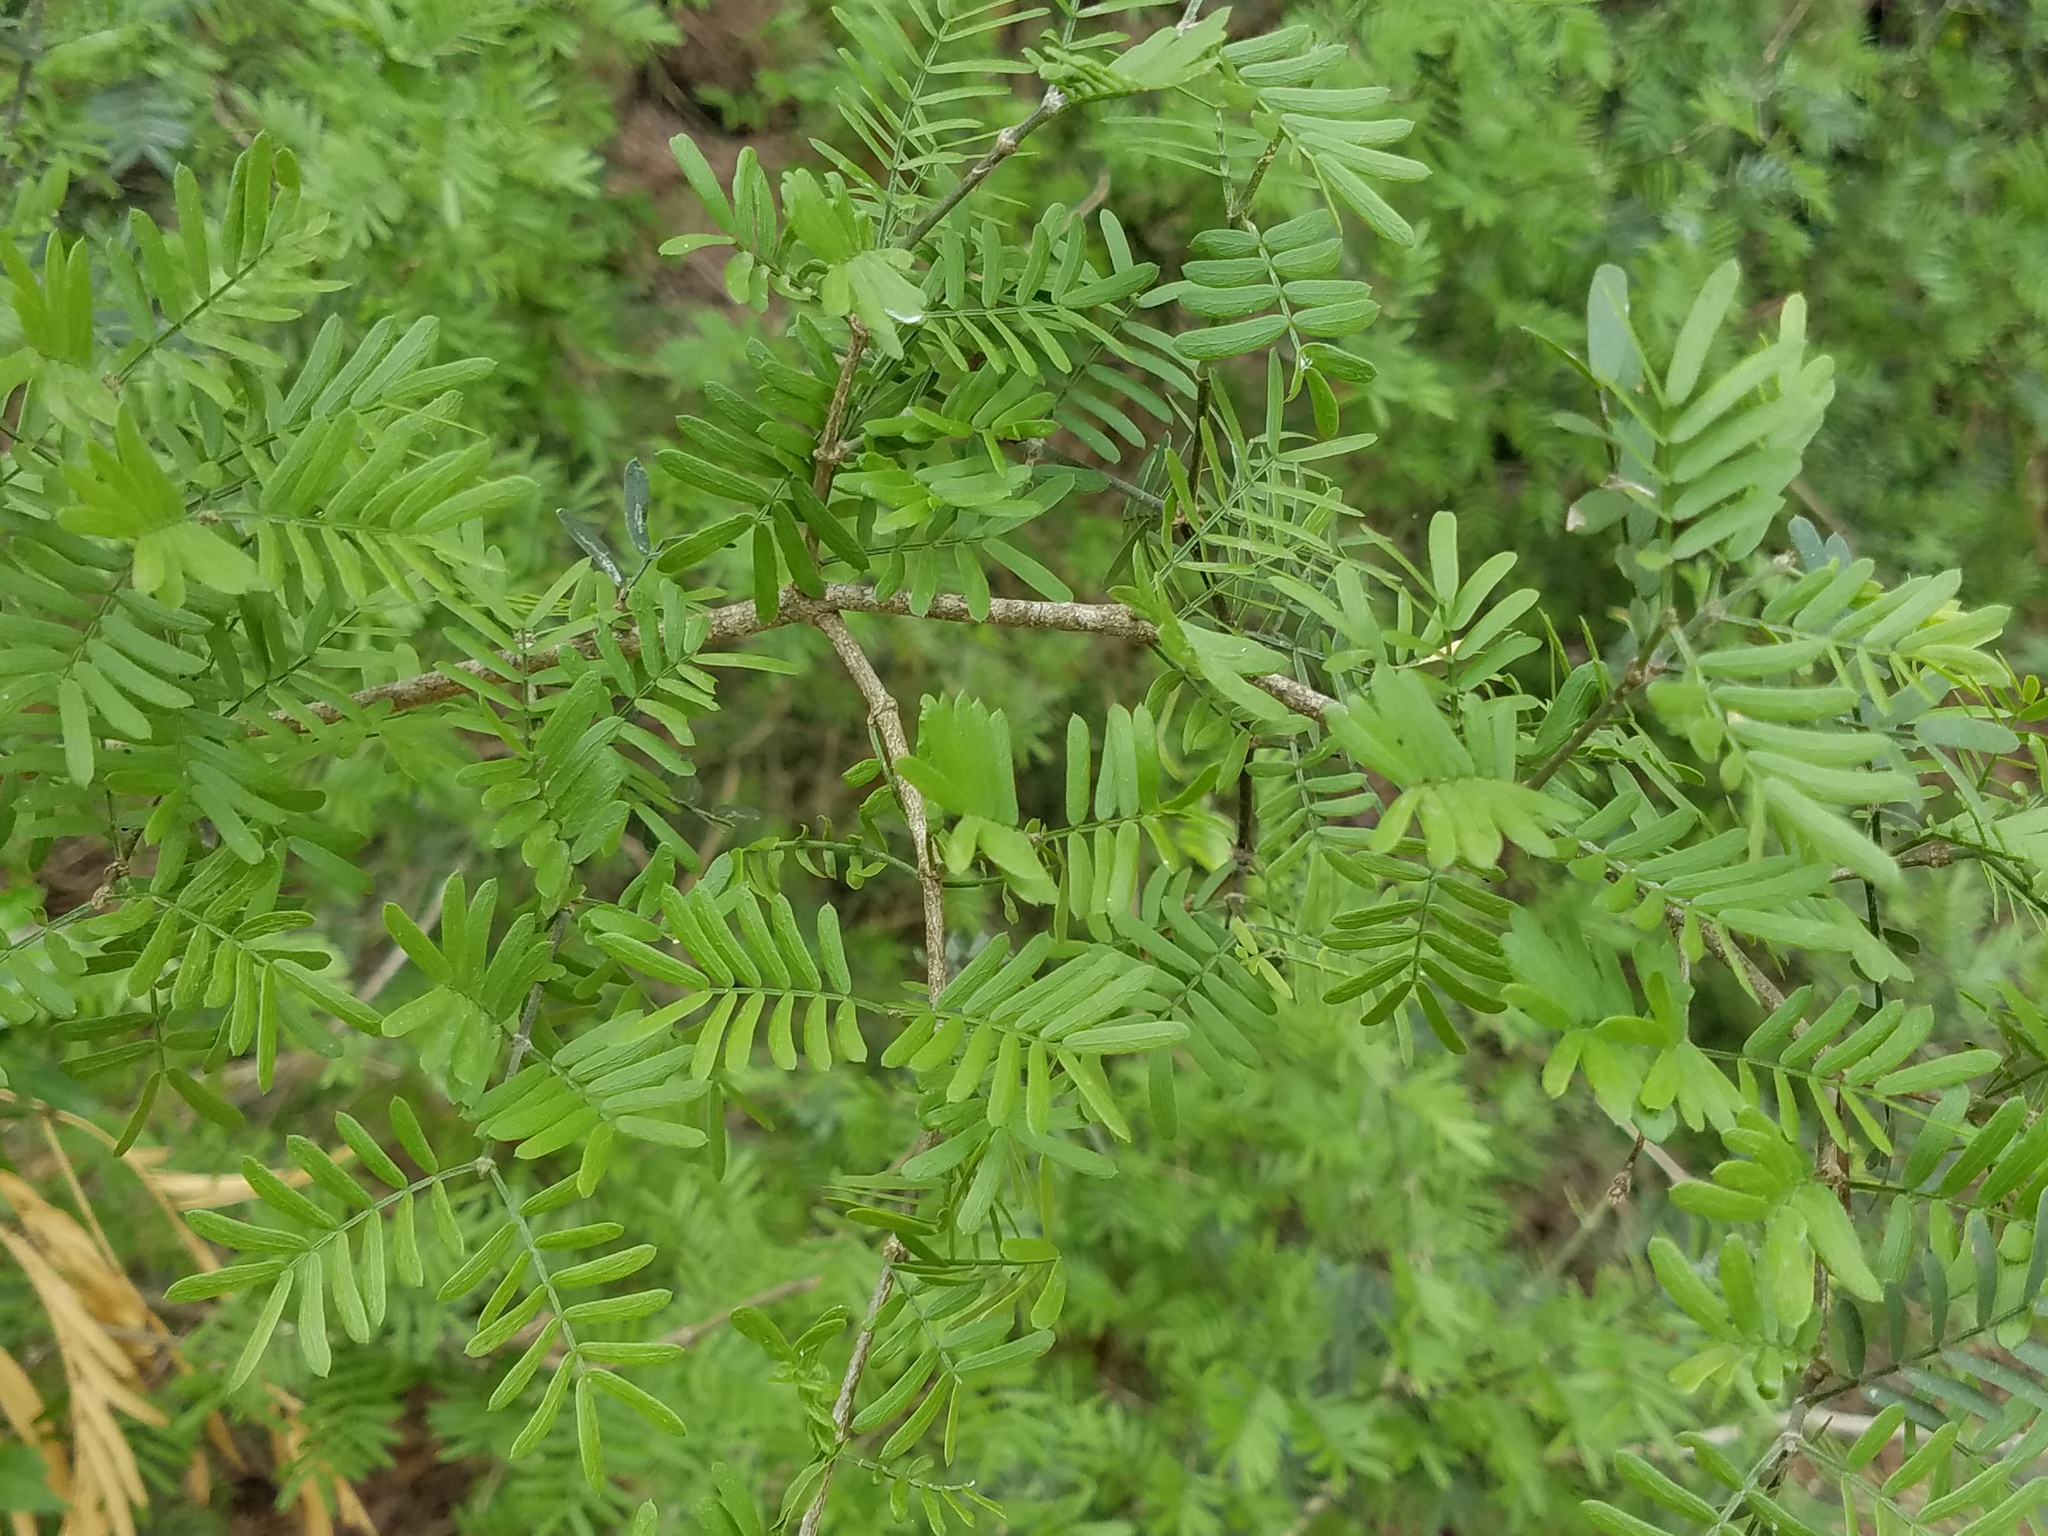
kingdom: Plantae
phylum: Tracheophyta
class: Magnoliopsida
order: Zygophyllales
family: Zygophyllaceae
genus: Porlieria
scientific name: Porlieria angustifolia
